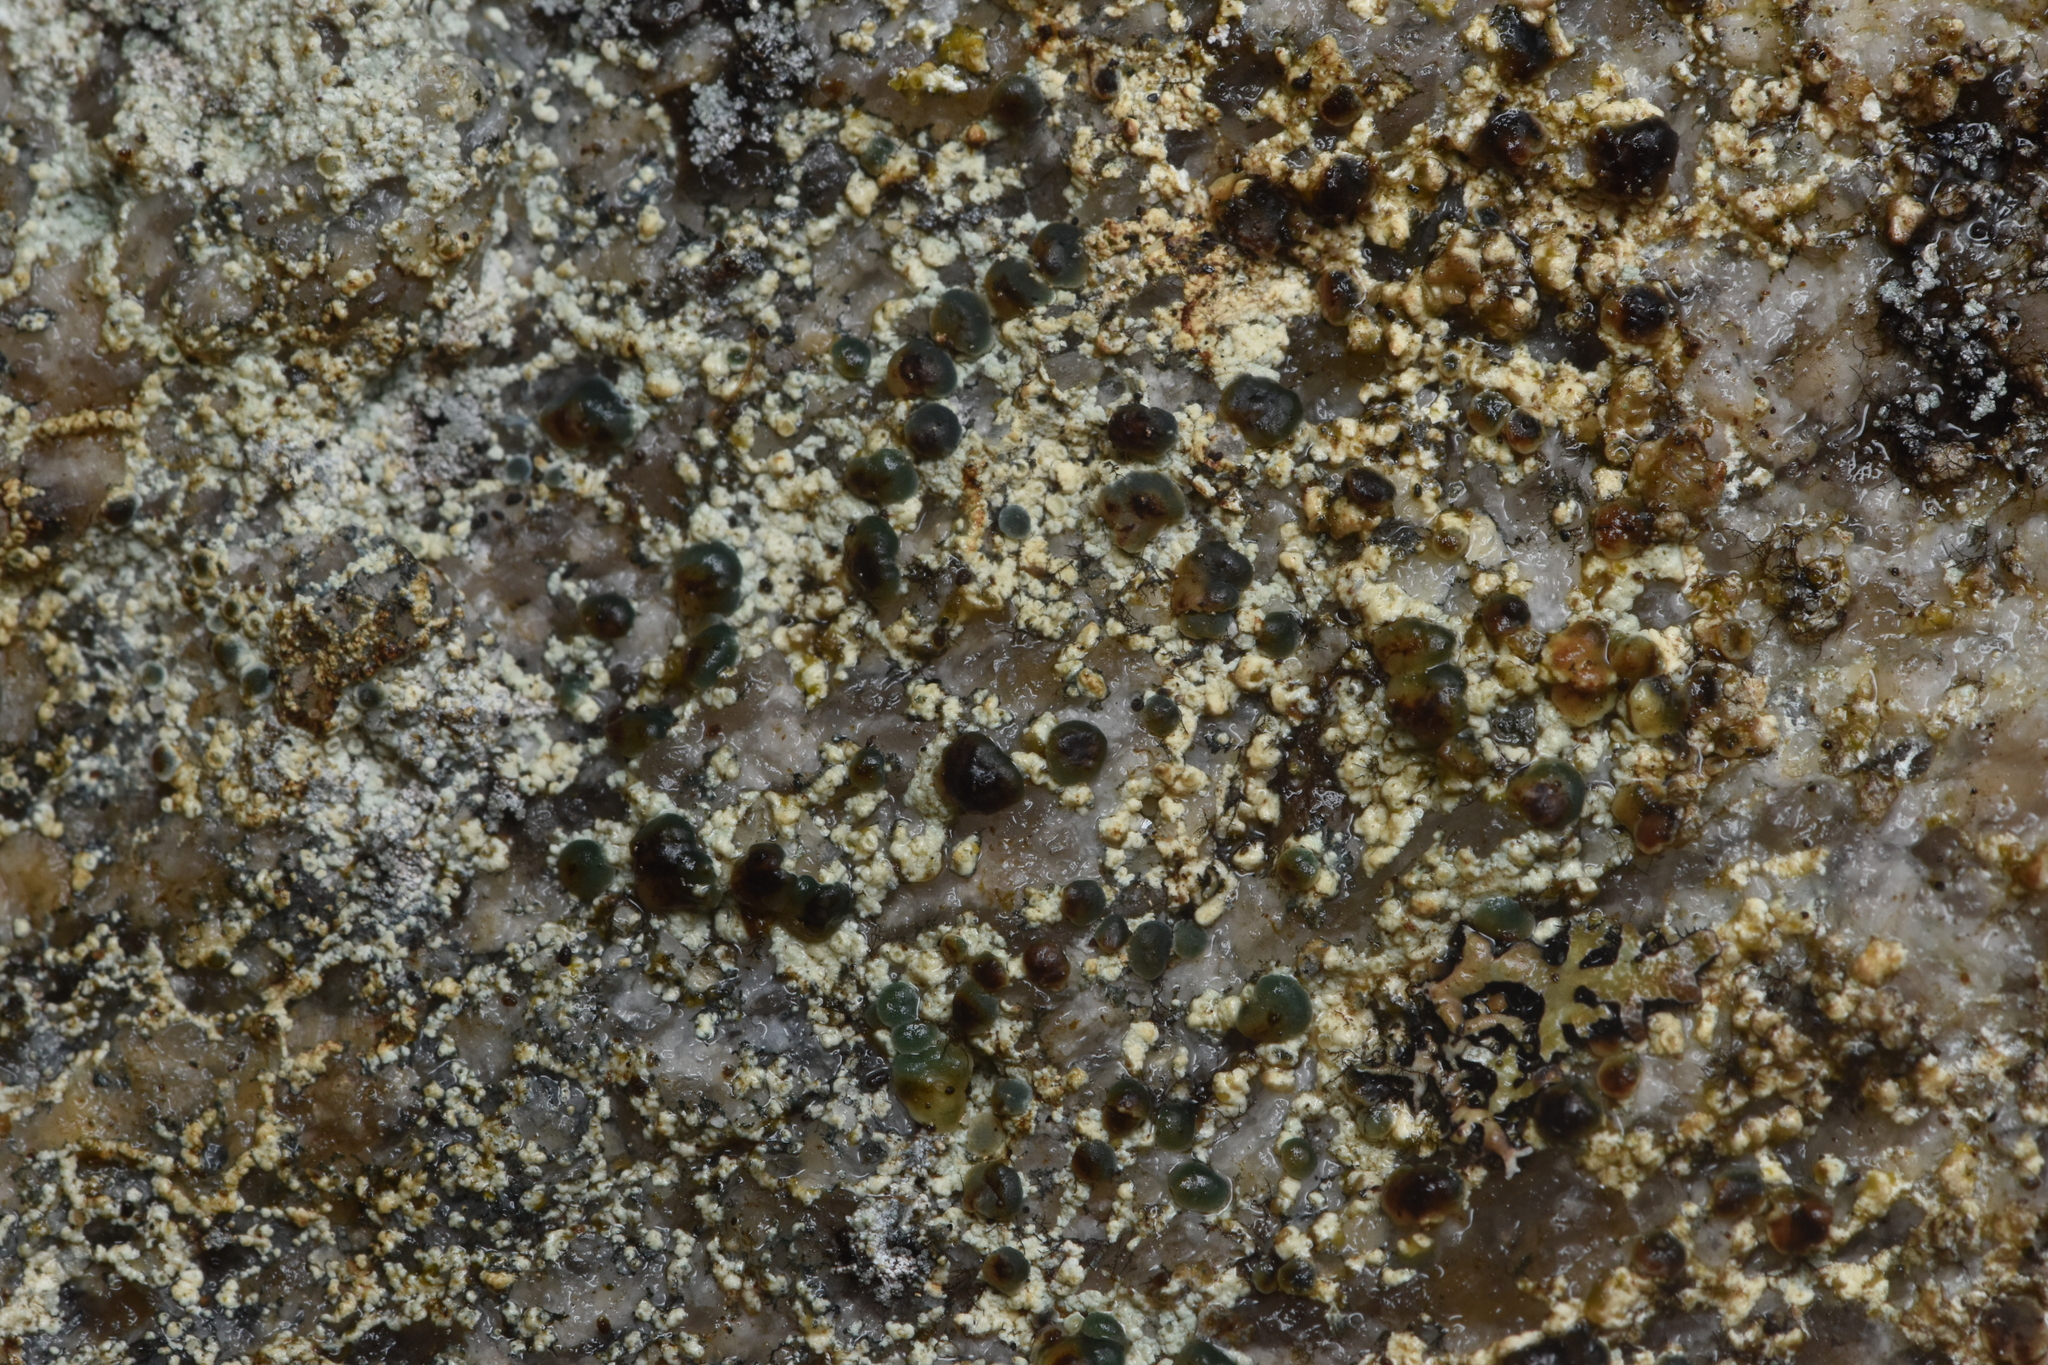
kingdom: Bacteria
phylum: Cyanobacteria
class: Cyanobacteriia
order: Cyanobacteriales
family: Nostocaceae
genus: Nostoc
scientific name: Nostoc
